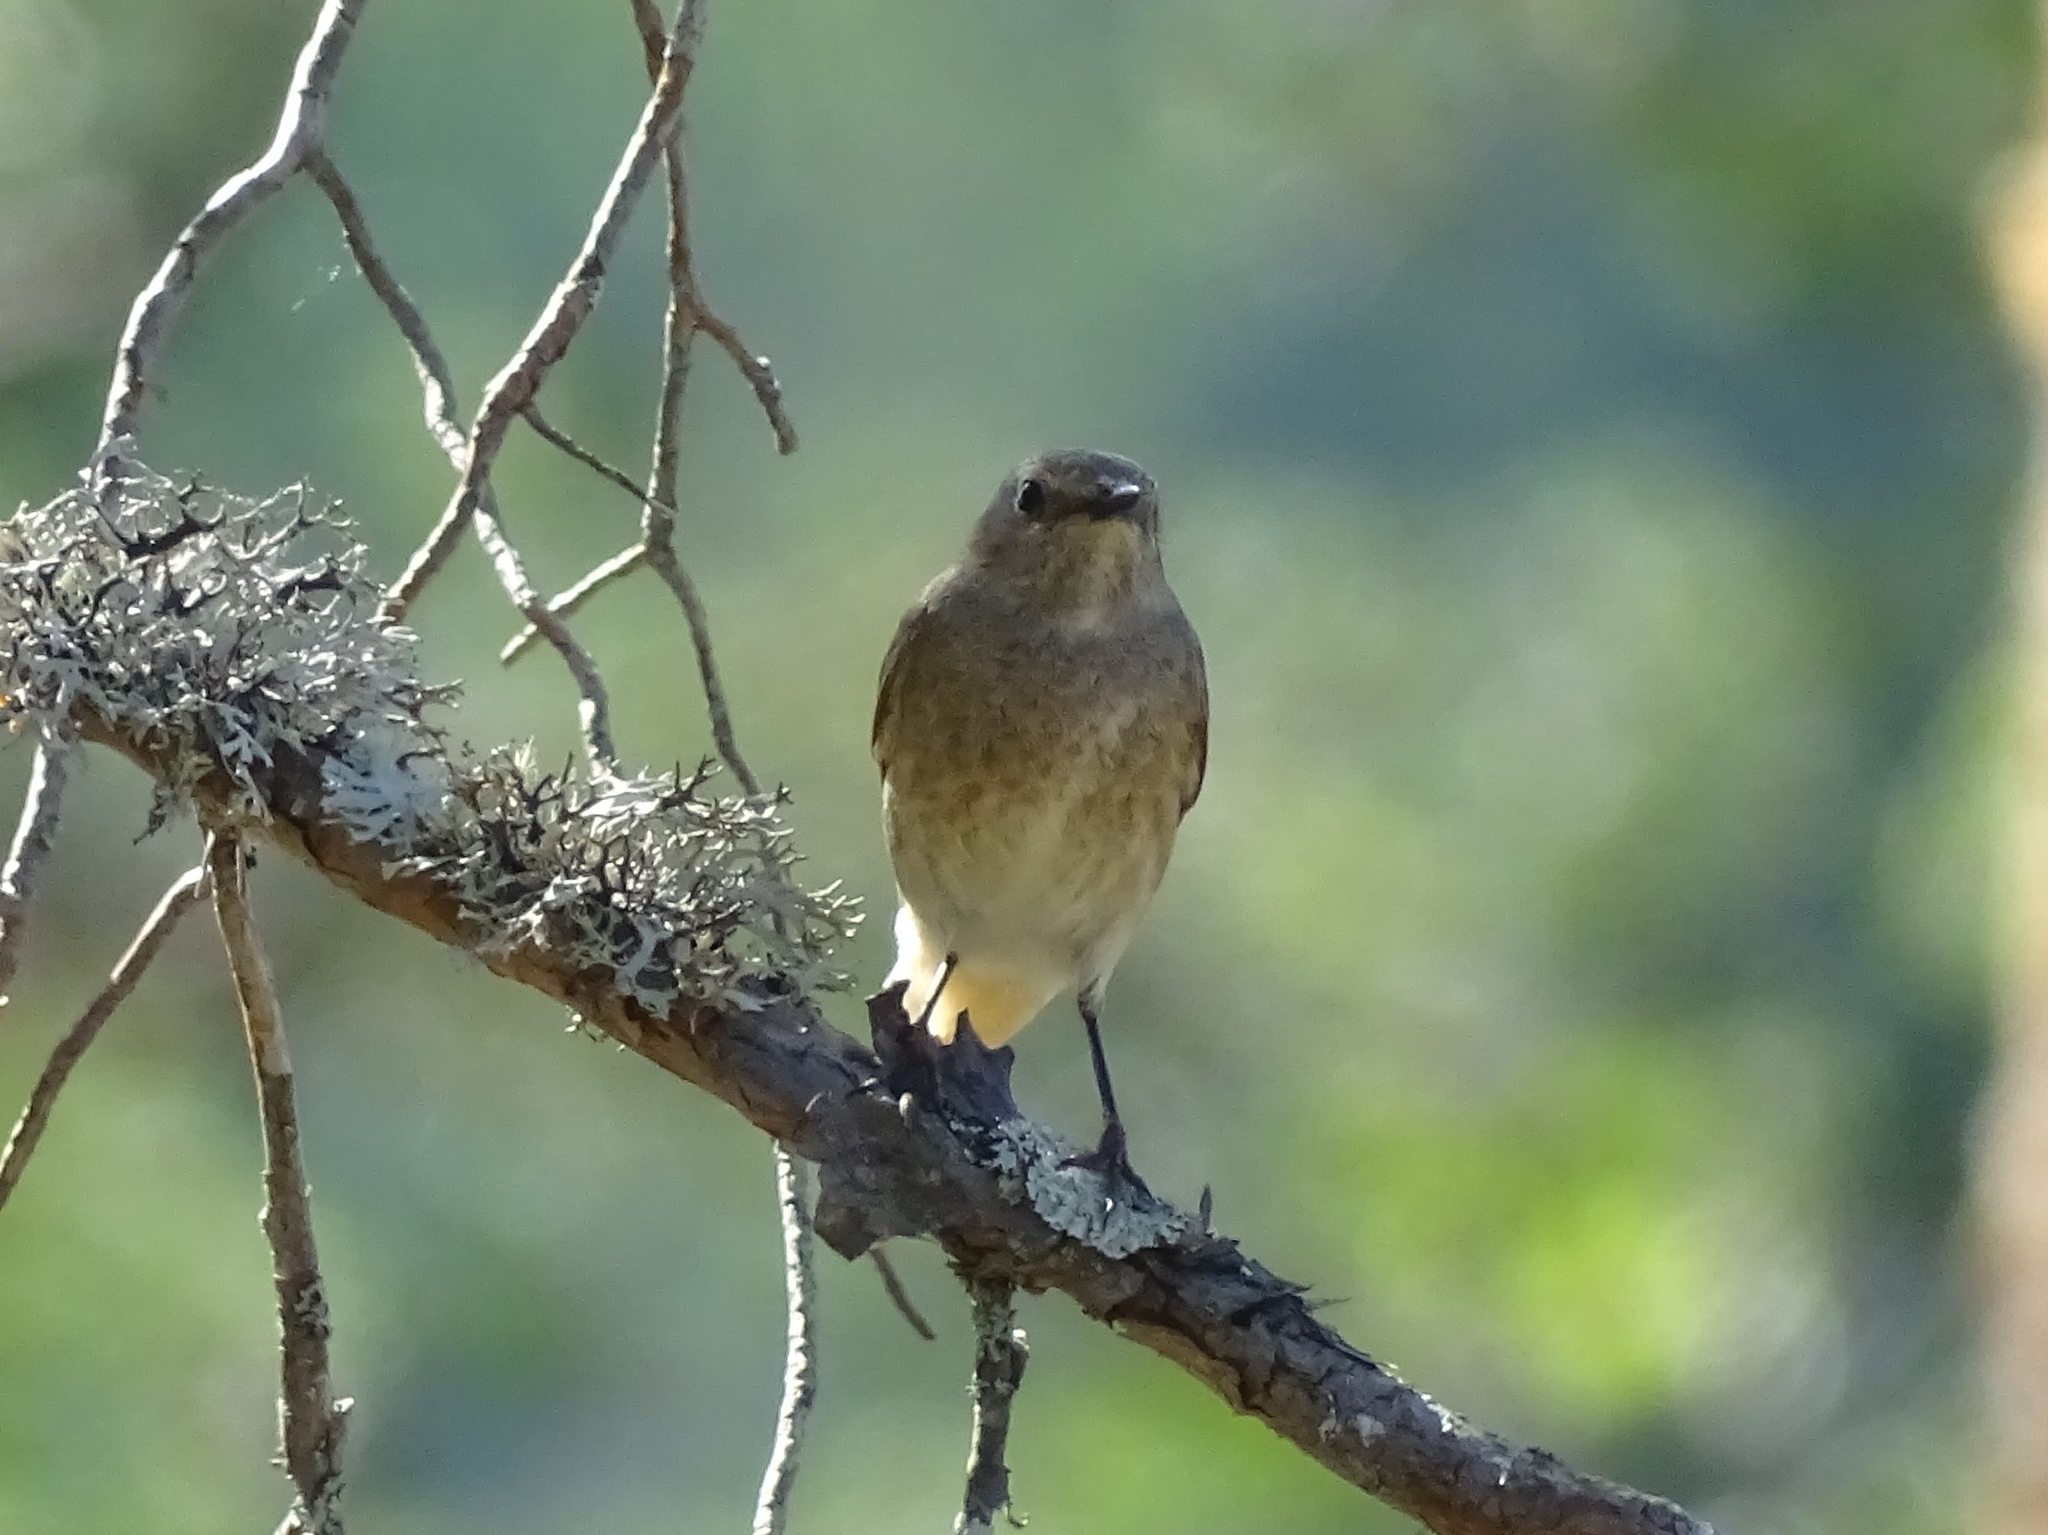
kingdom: Animalia
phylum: Chordata
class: Aves
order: Passeriformes
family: Muscicapidae
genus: Phoenicurus
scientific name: Phoenicurus phoenicurus
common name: Common redstart
